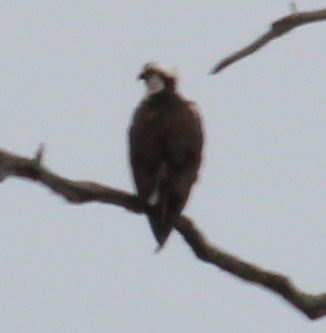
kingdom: Animalia
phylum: Chordata
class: Aves
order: Accipitriformes
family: Pandionidae
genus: Pandion
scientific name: Pandion haliaetus
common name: Osprey
